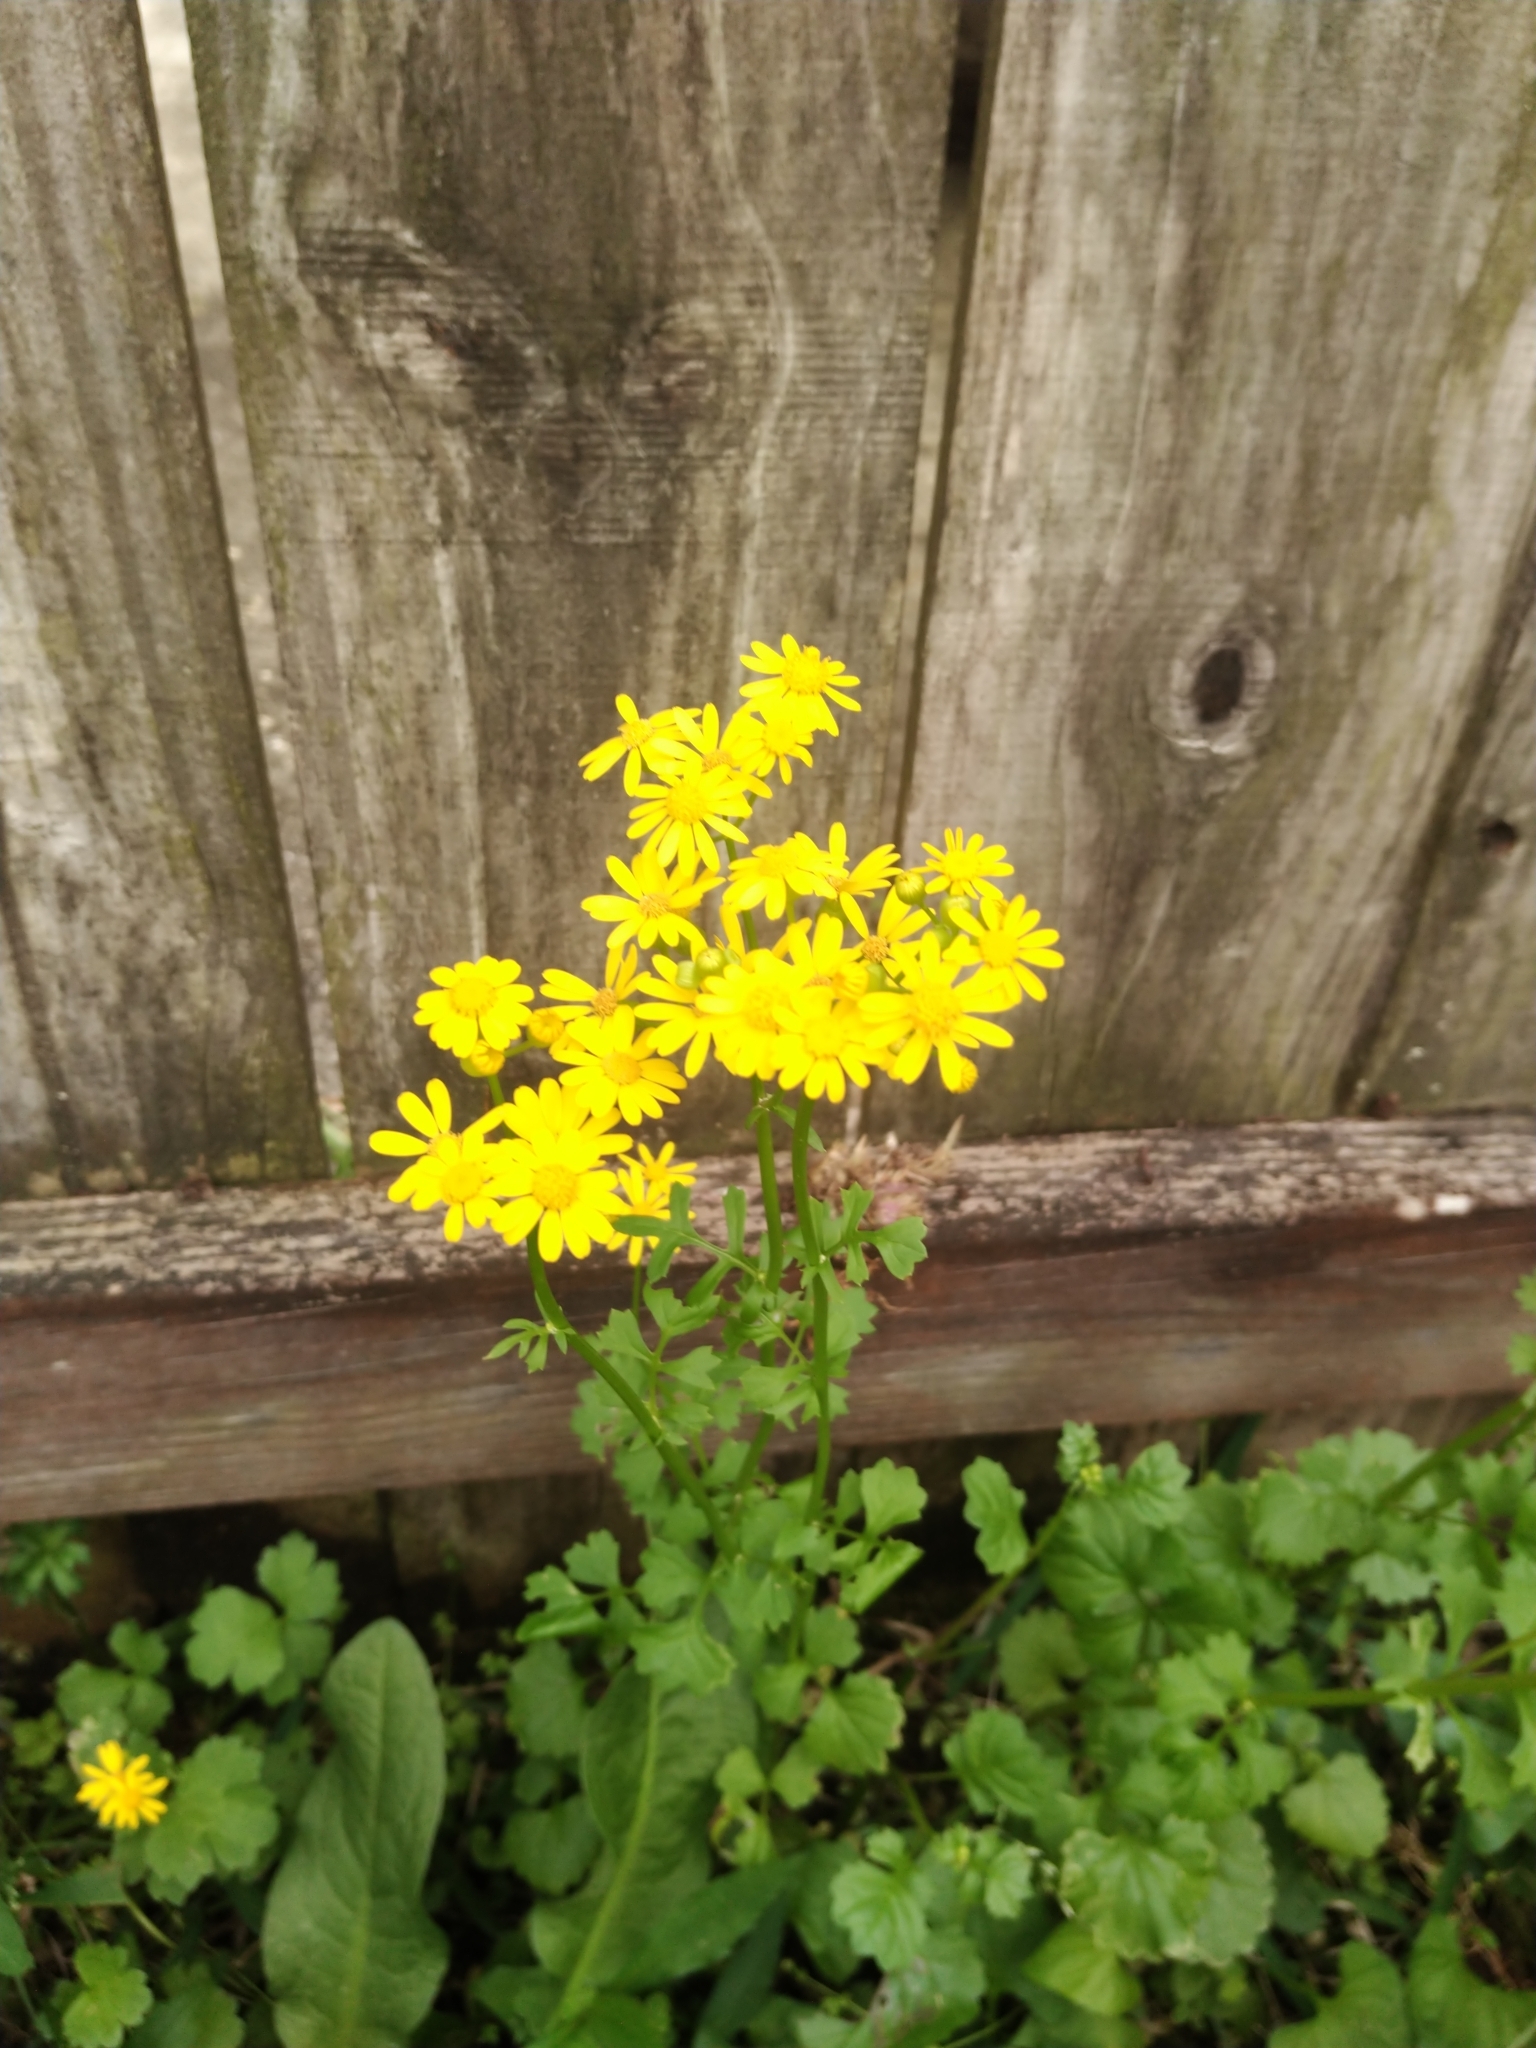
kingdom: Plantae
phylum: Tracheophyta
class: Magnoliopsida
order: Asterales
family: Asteraceae
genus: Packera
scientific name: Packera glabella
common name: Butterweed
